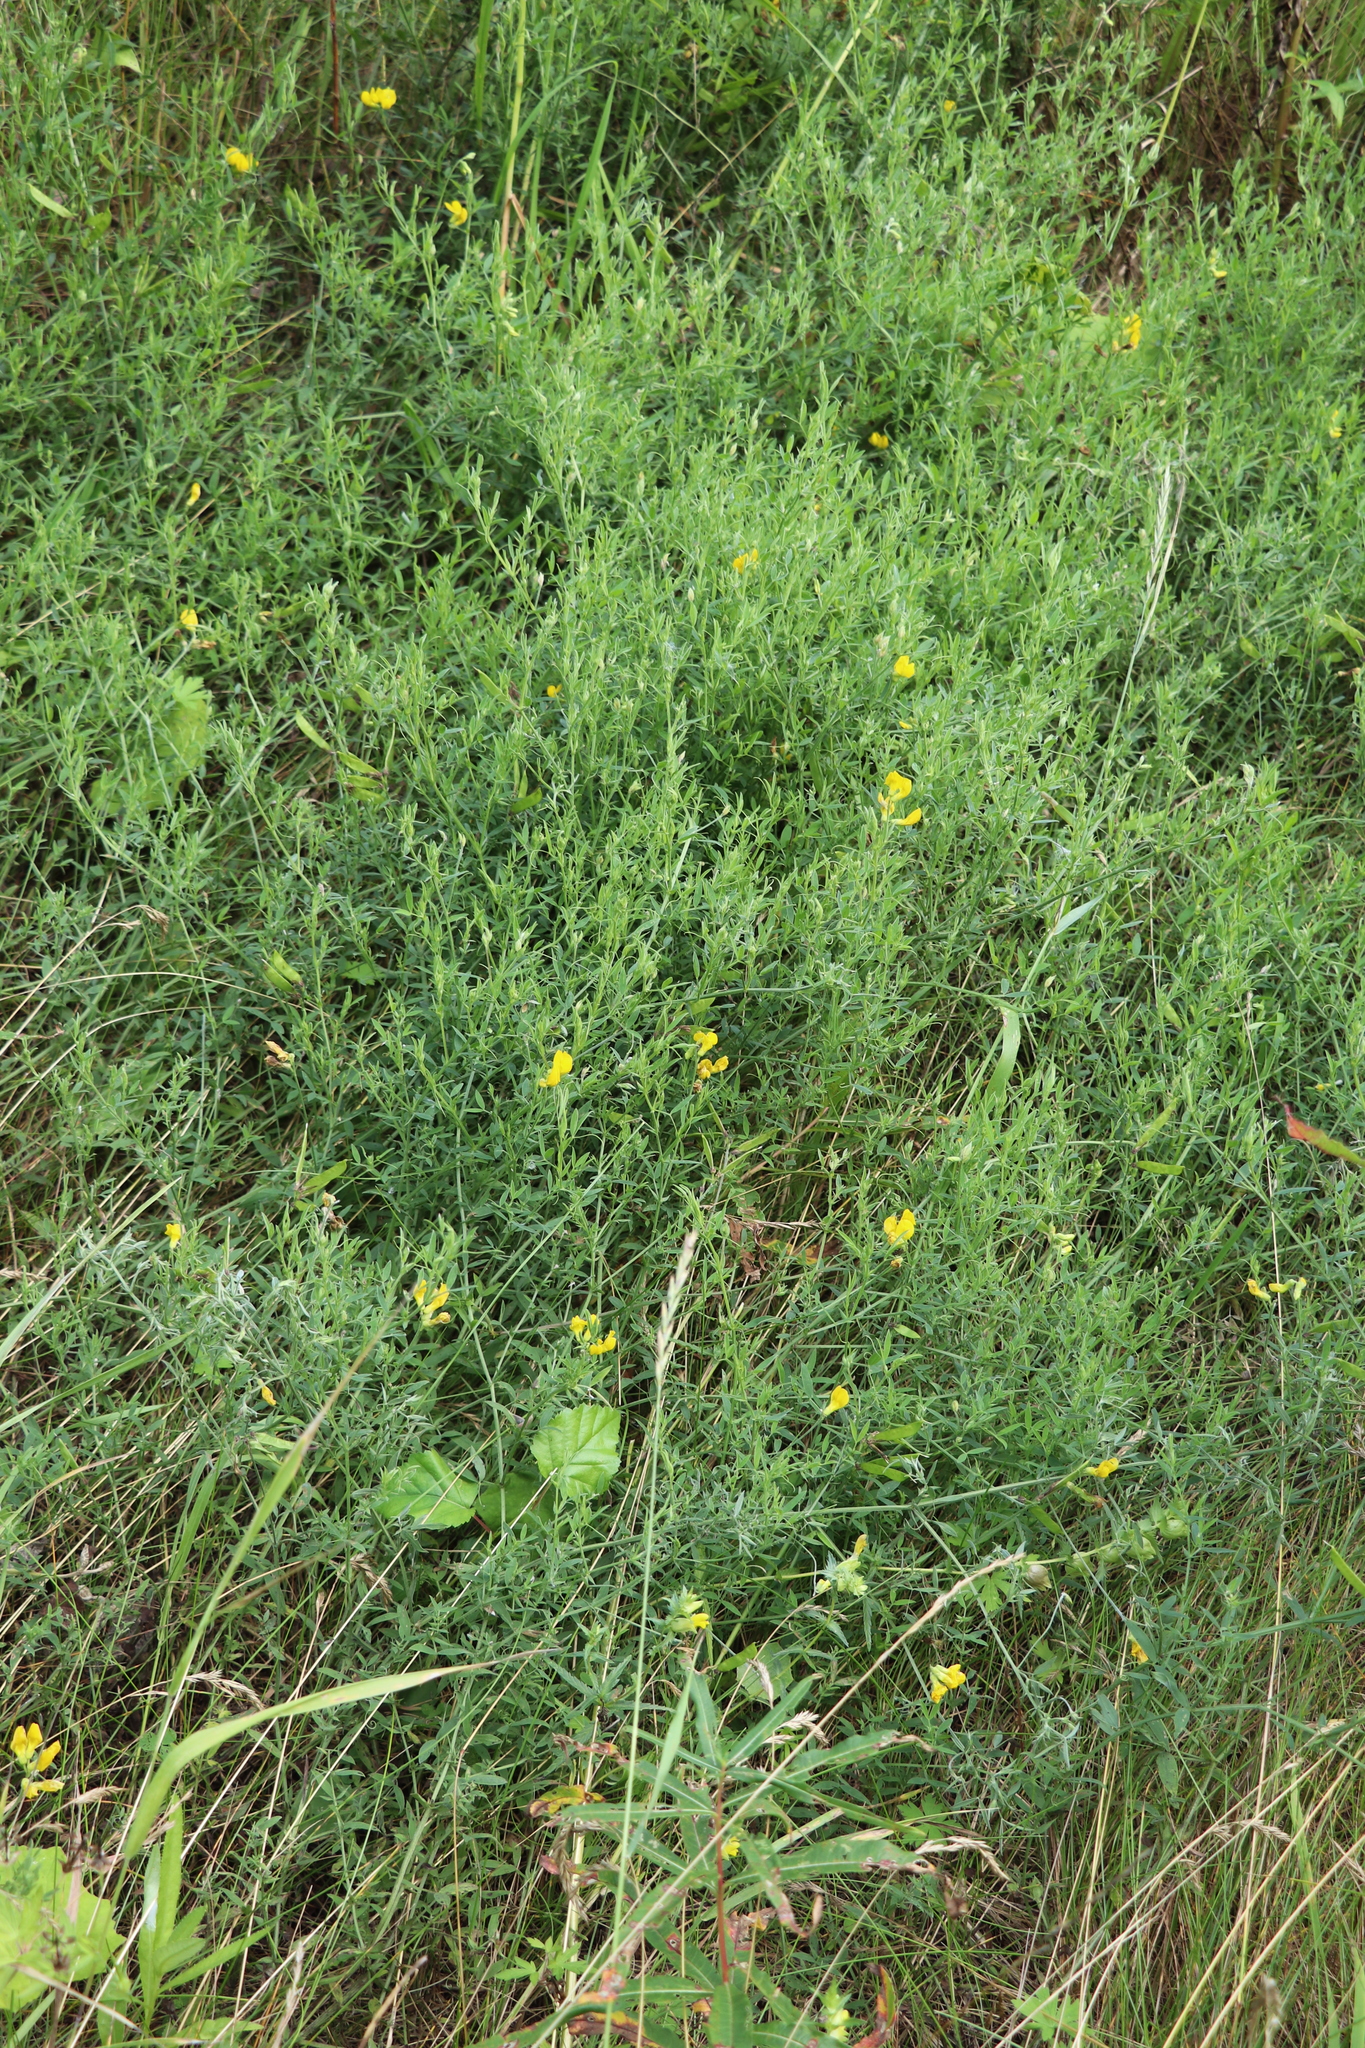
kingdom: Plantae
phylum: Tracheophyta
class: Magnoliopsida
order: Fabales
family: Fabaceae
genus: Lathyrus
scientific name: Lathyrus pratensis
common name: Meadow vetchling
